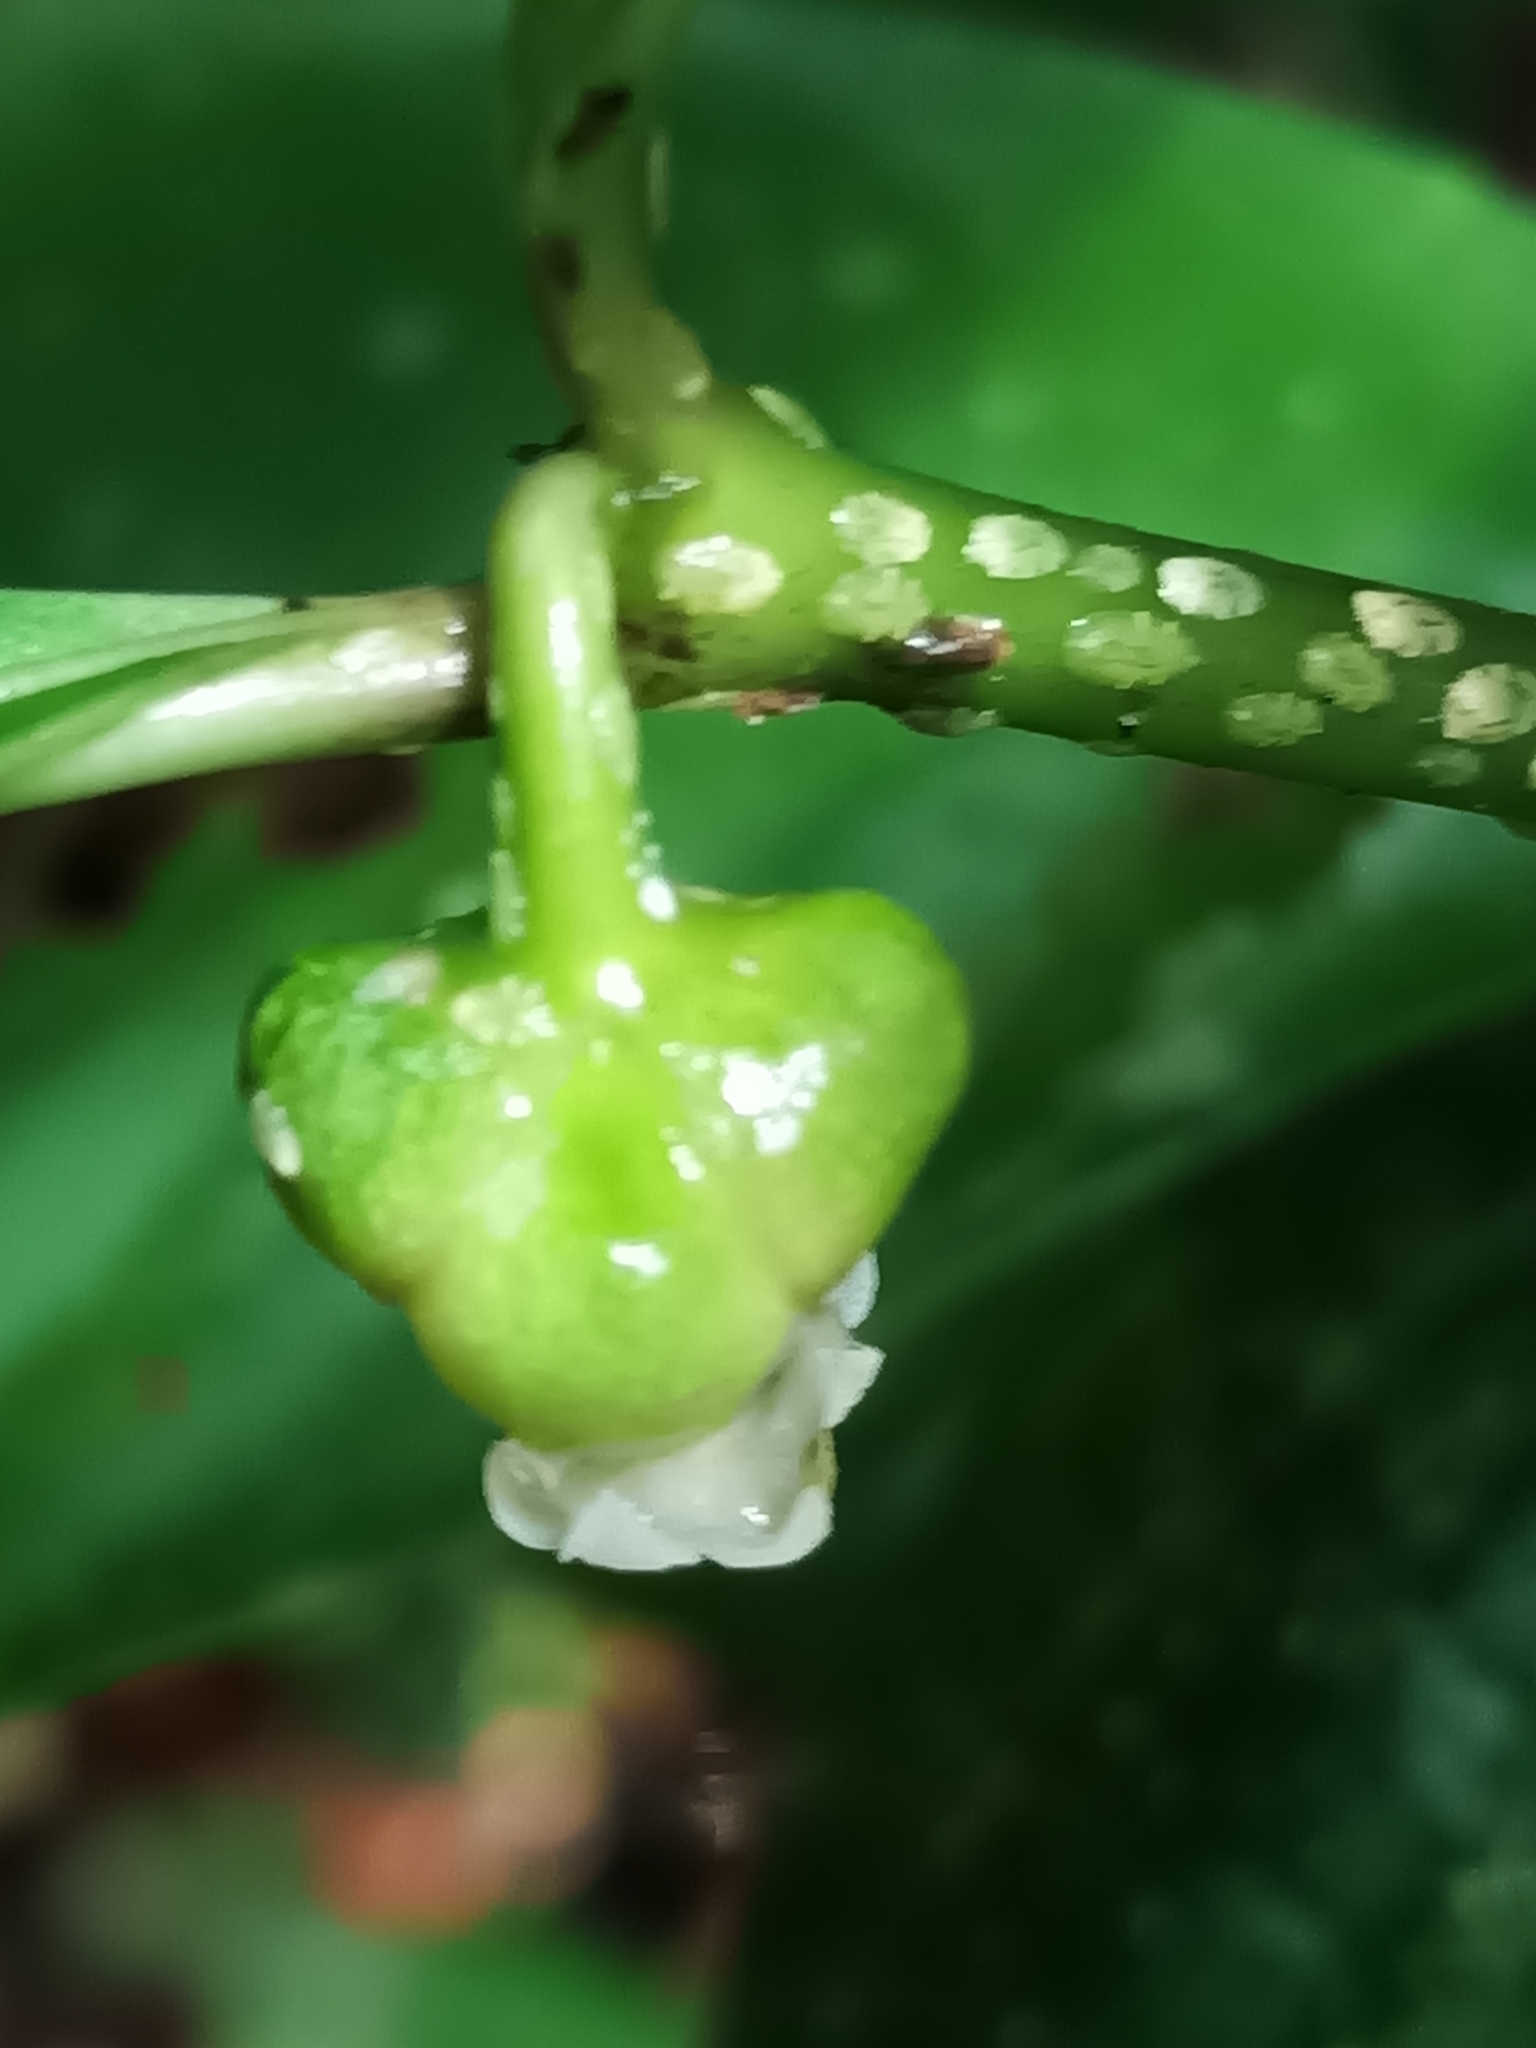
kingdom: Plantae
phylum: Tracheophyta
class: Magnoliopsida
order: Gentianales
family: Rubiaceae
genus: Palicourea
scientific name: Palicourea dichotoma
